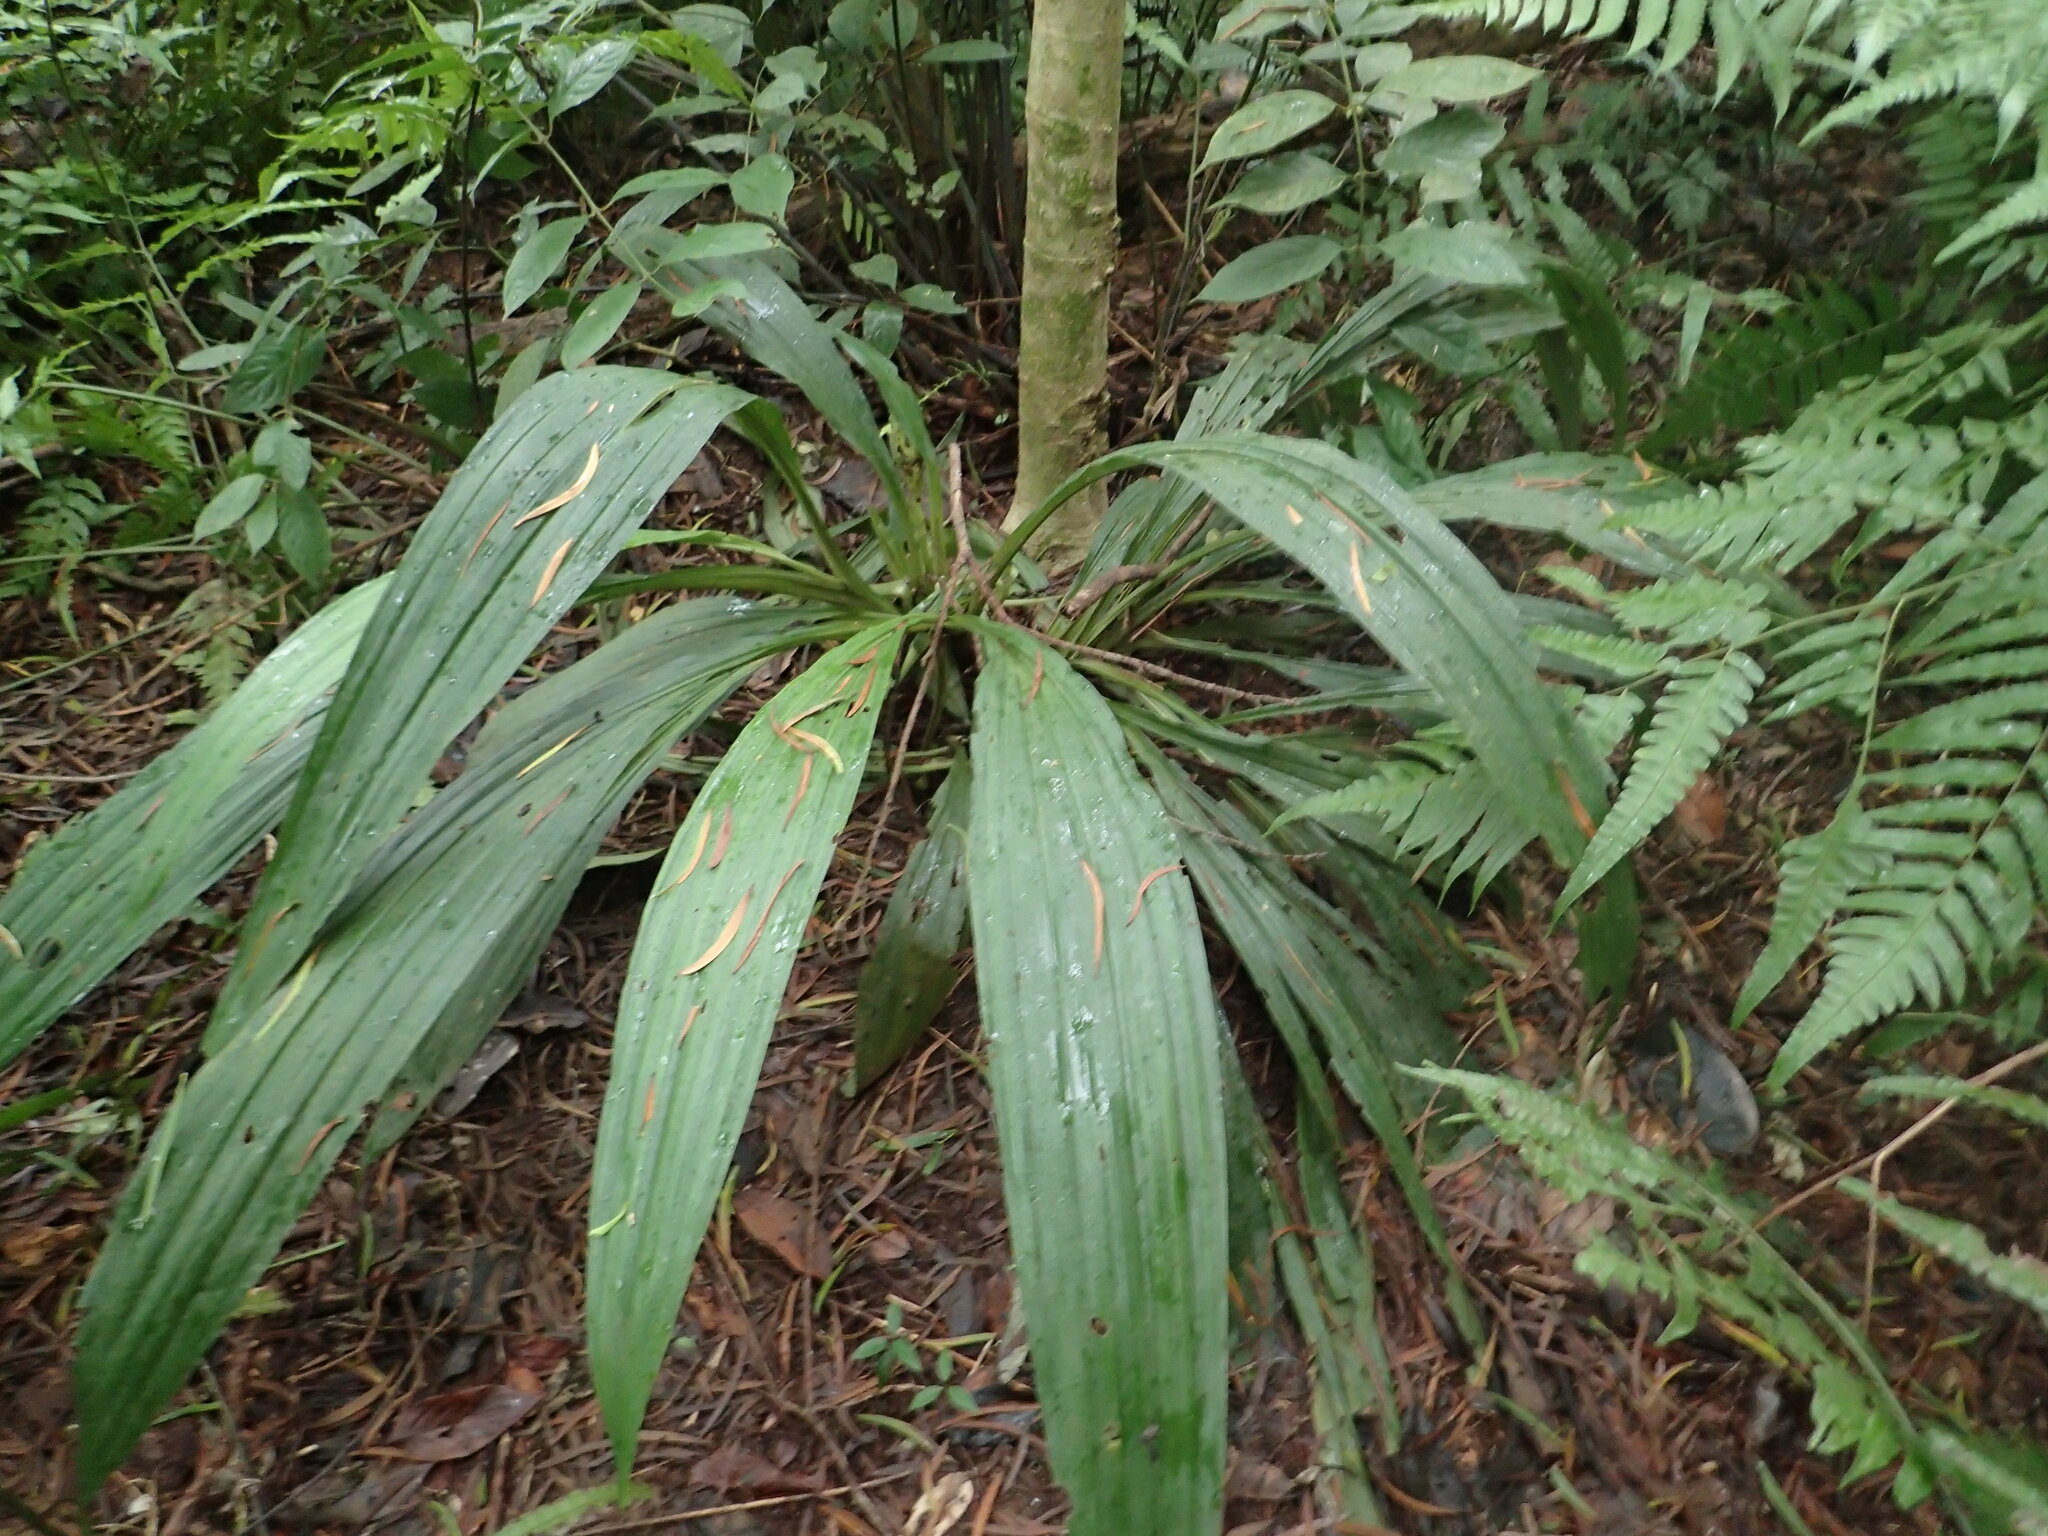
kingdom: Plantae
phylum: Tracheophyta
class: Liliopsida
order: Asparagales
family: Orchidaceae
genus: Calanthe
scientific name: Calanthe formosana
